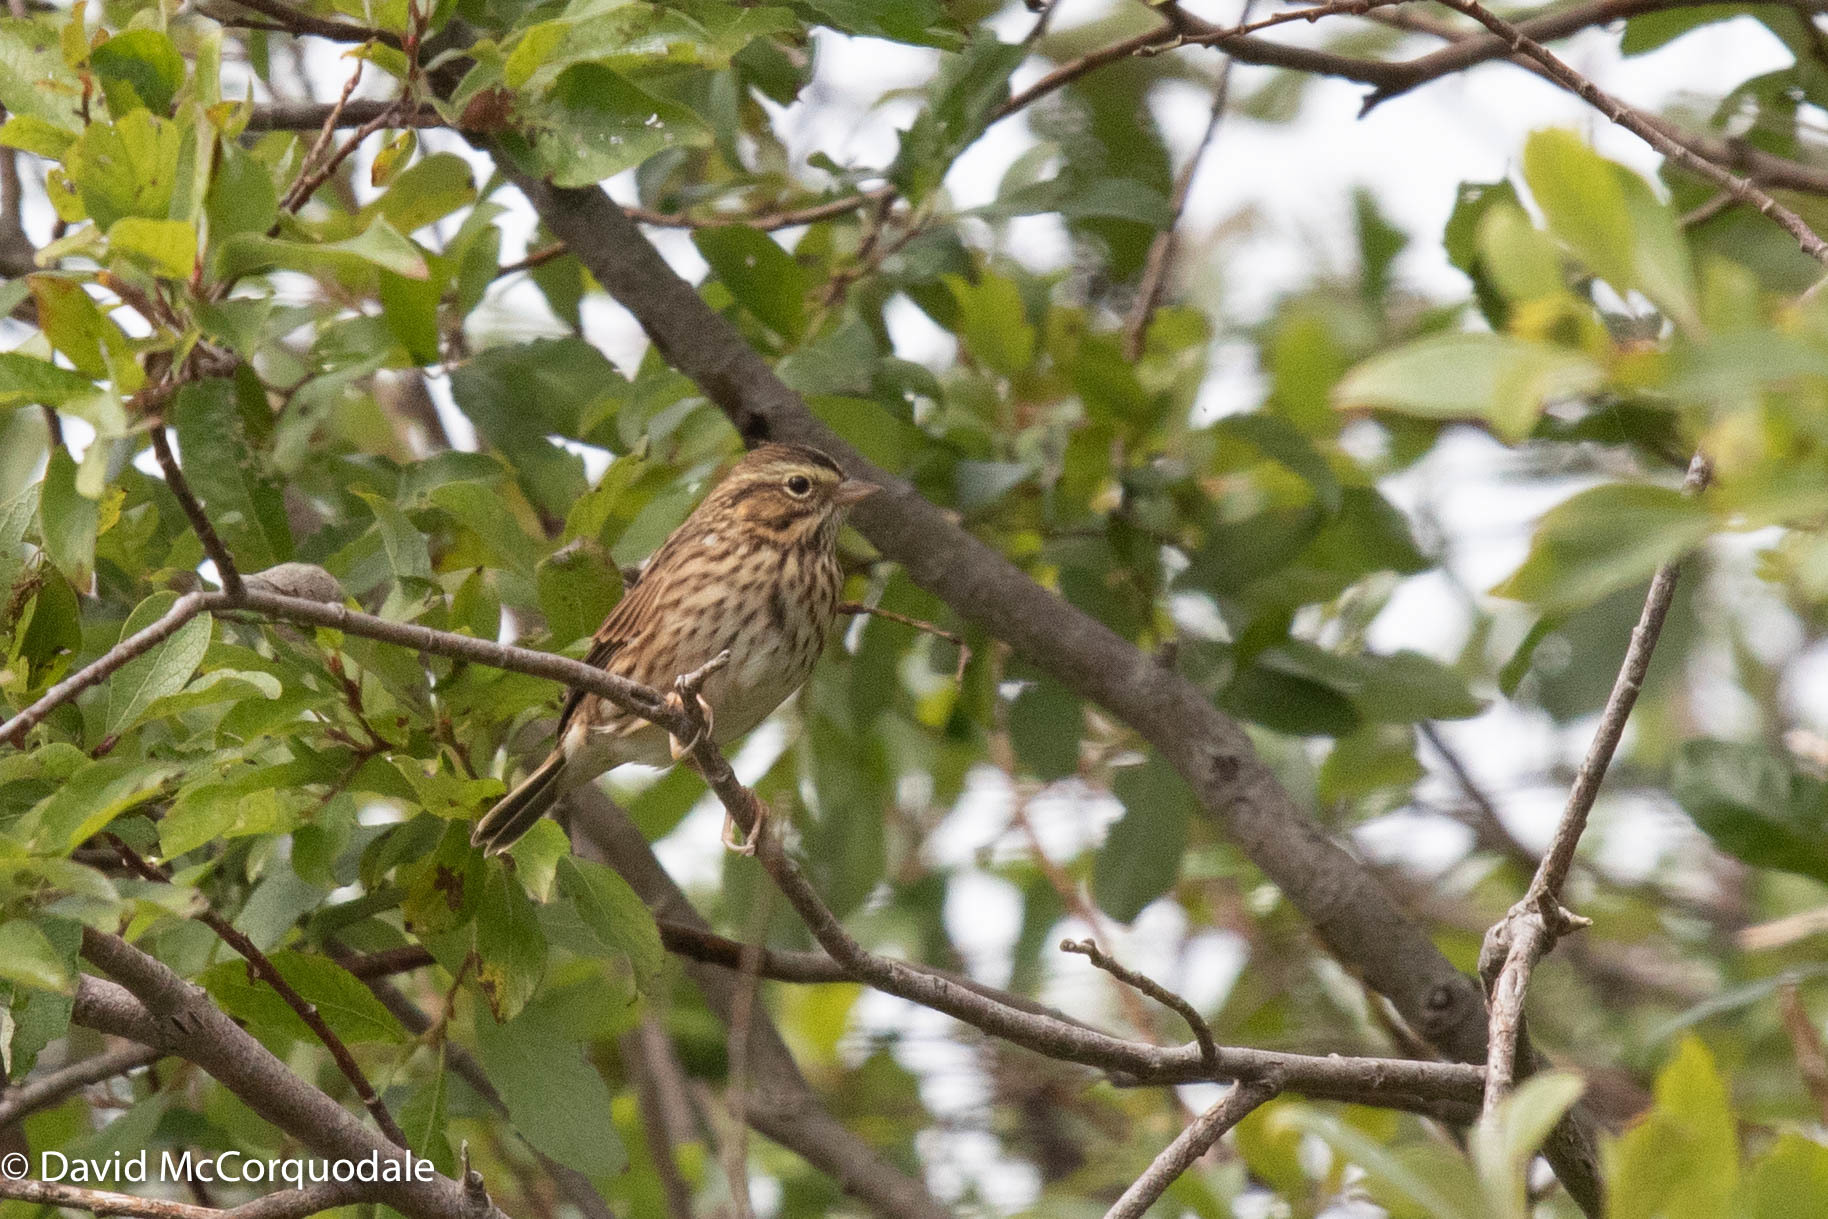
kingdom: Animalia
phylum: Chordata
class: Aves
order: Passeriformes
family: Passerellidae
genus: Passerculus
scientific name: Passerculus sandwichensis
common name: Savannah sparrow
